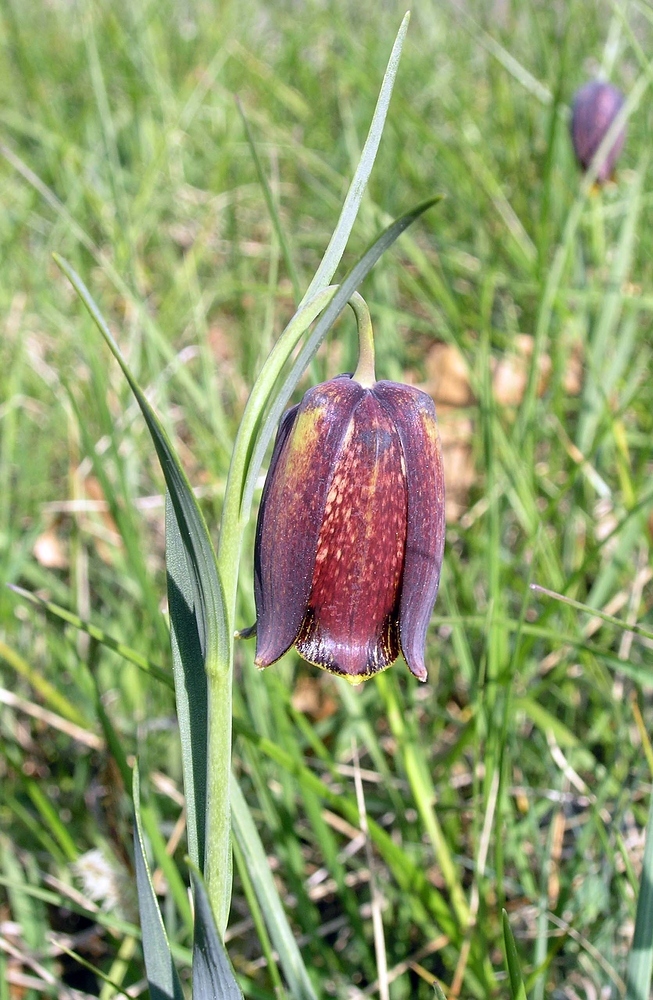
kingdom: Plantae
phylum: Tracheophyta
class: Liliopsida
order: Liliales
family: Liliaceae
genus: Fritillaria
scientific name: Fritillaria pyrenaica
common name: Pyrenean snake's-head
